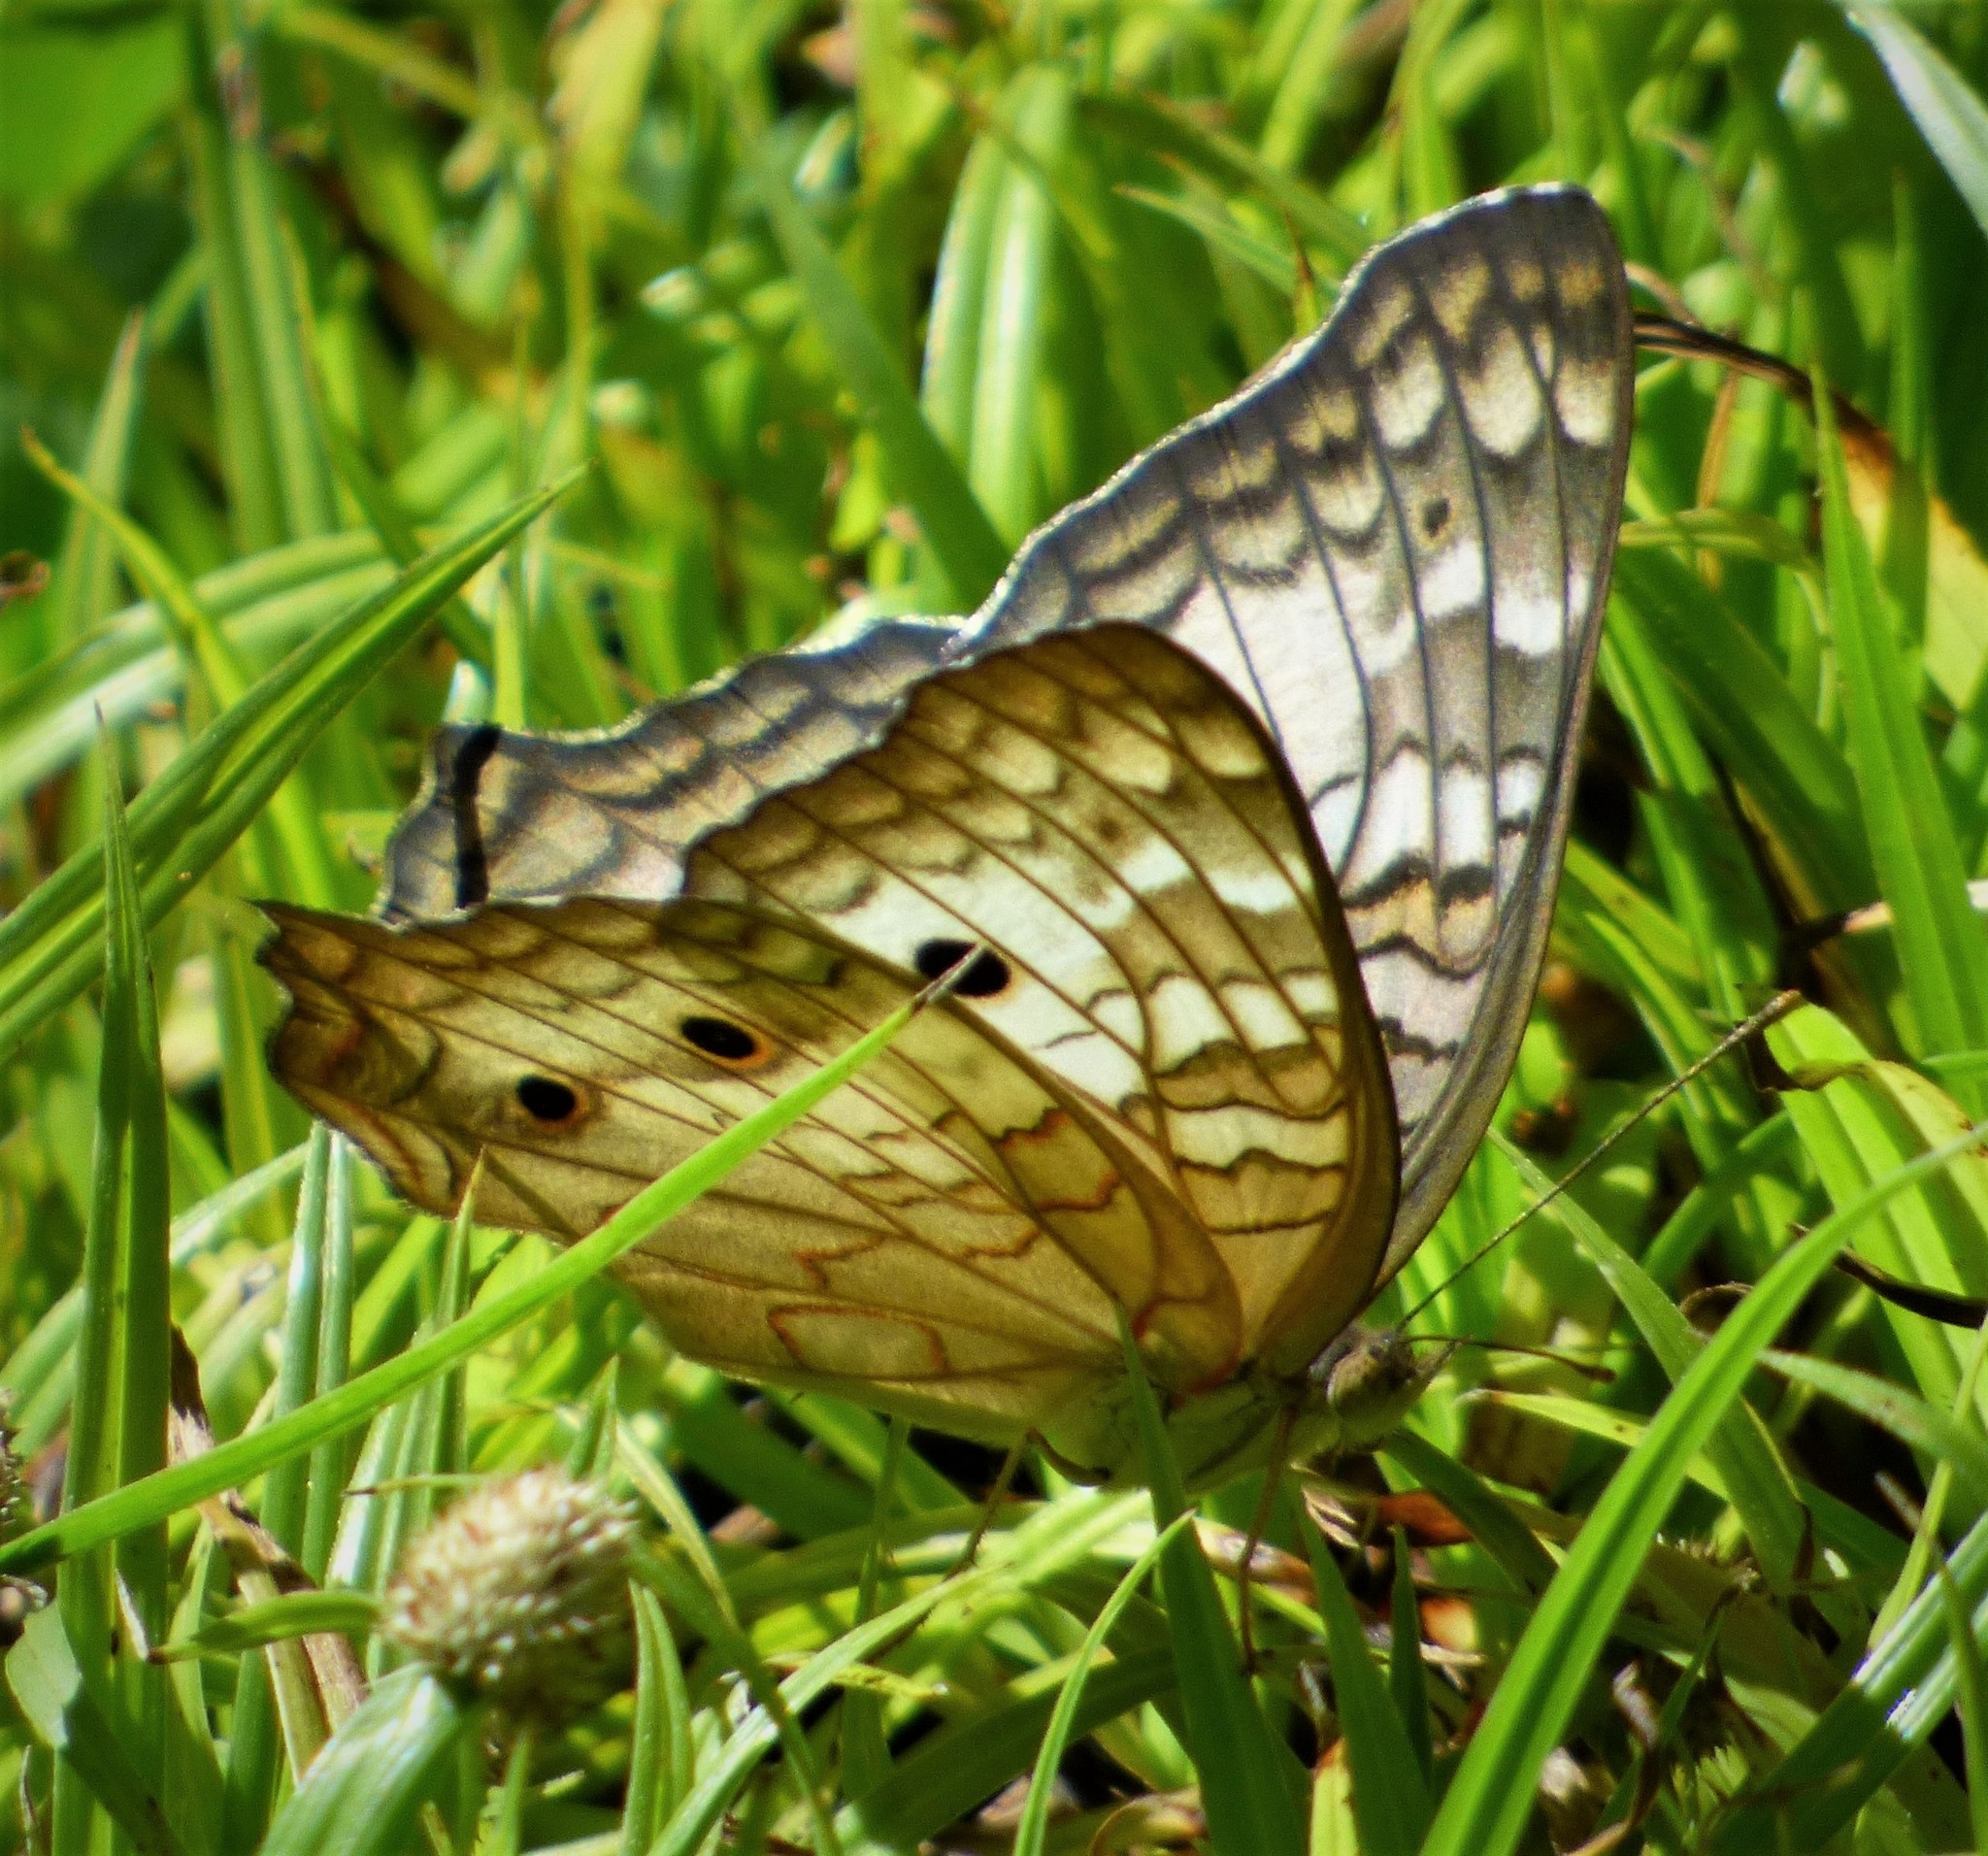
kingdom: Animalia
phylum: Arthropoda
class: Insecta
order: Lepidoptera
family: Nymphalidae
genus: Anartia
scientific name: Anartia jatrophae
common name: White peacock
